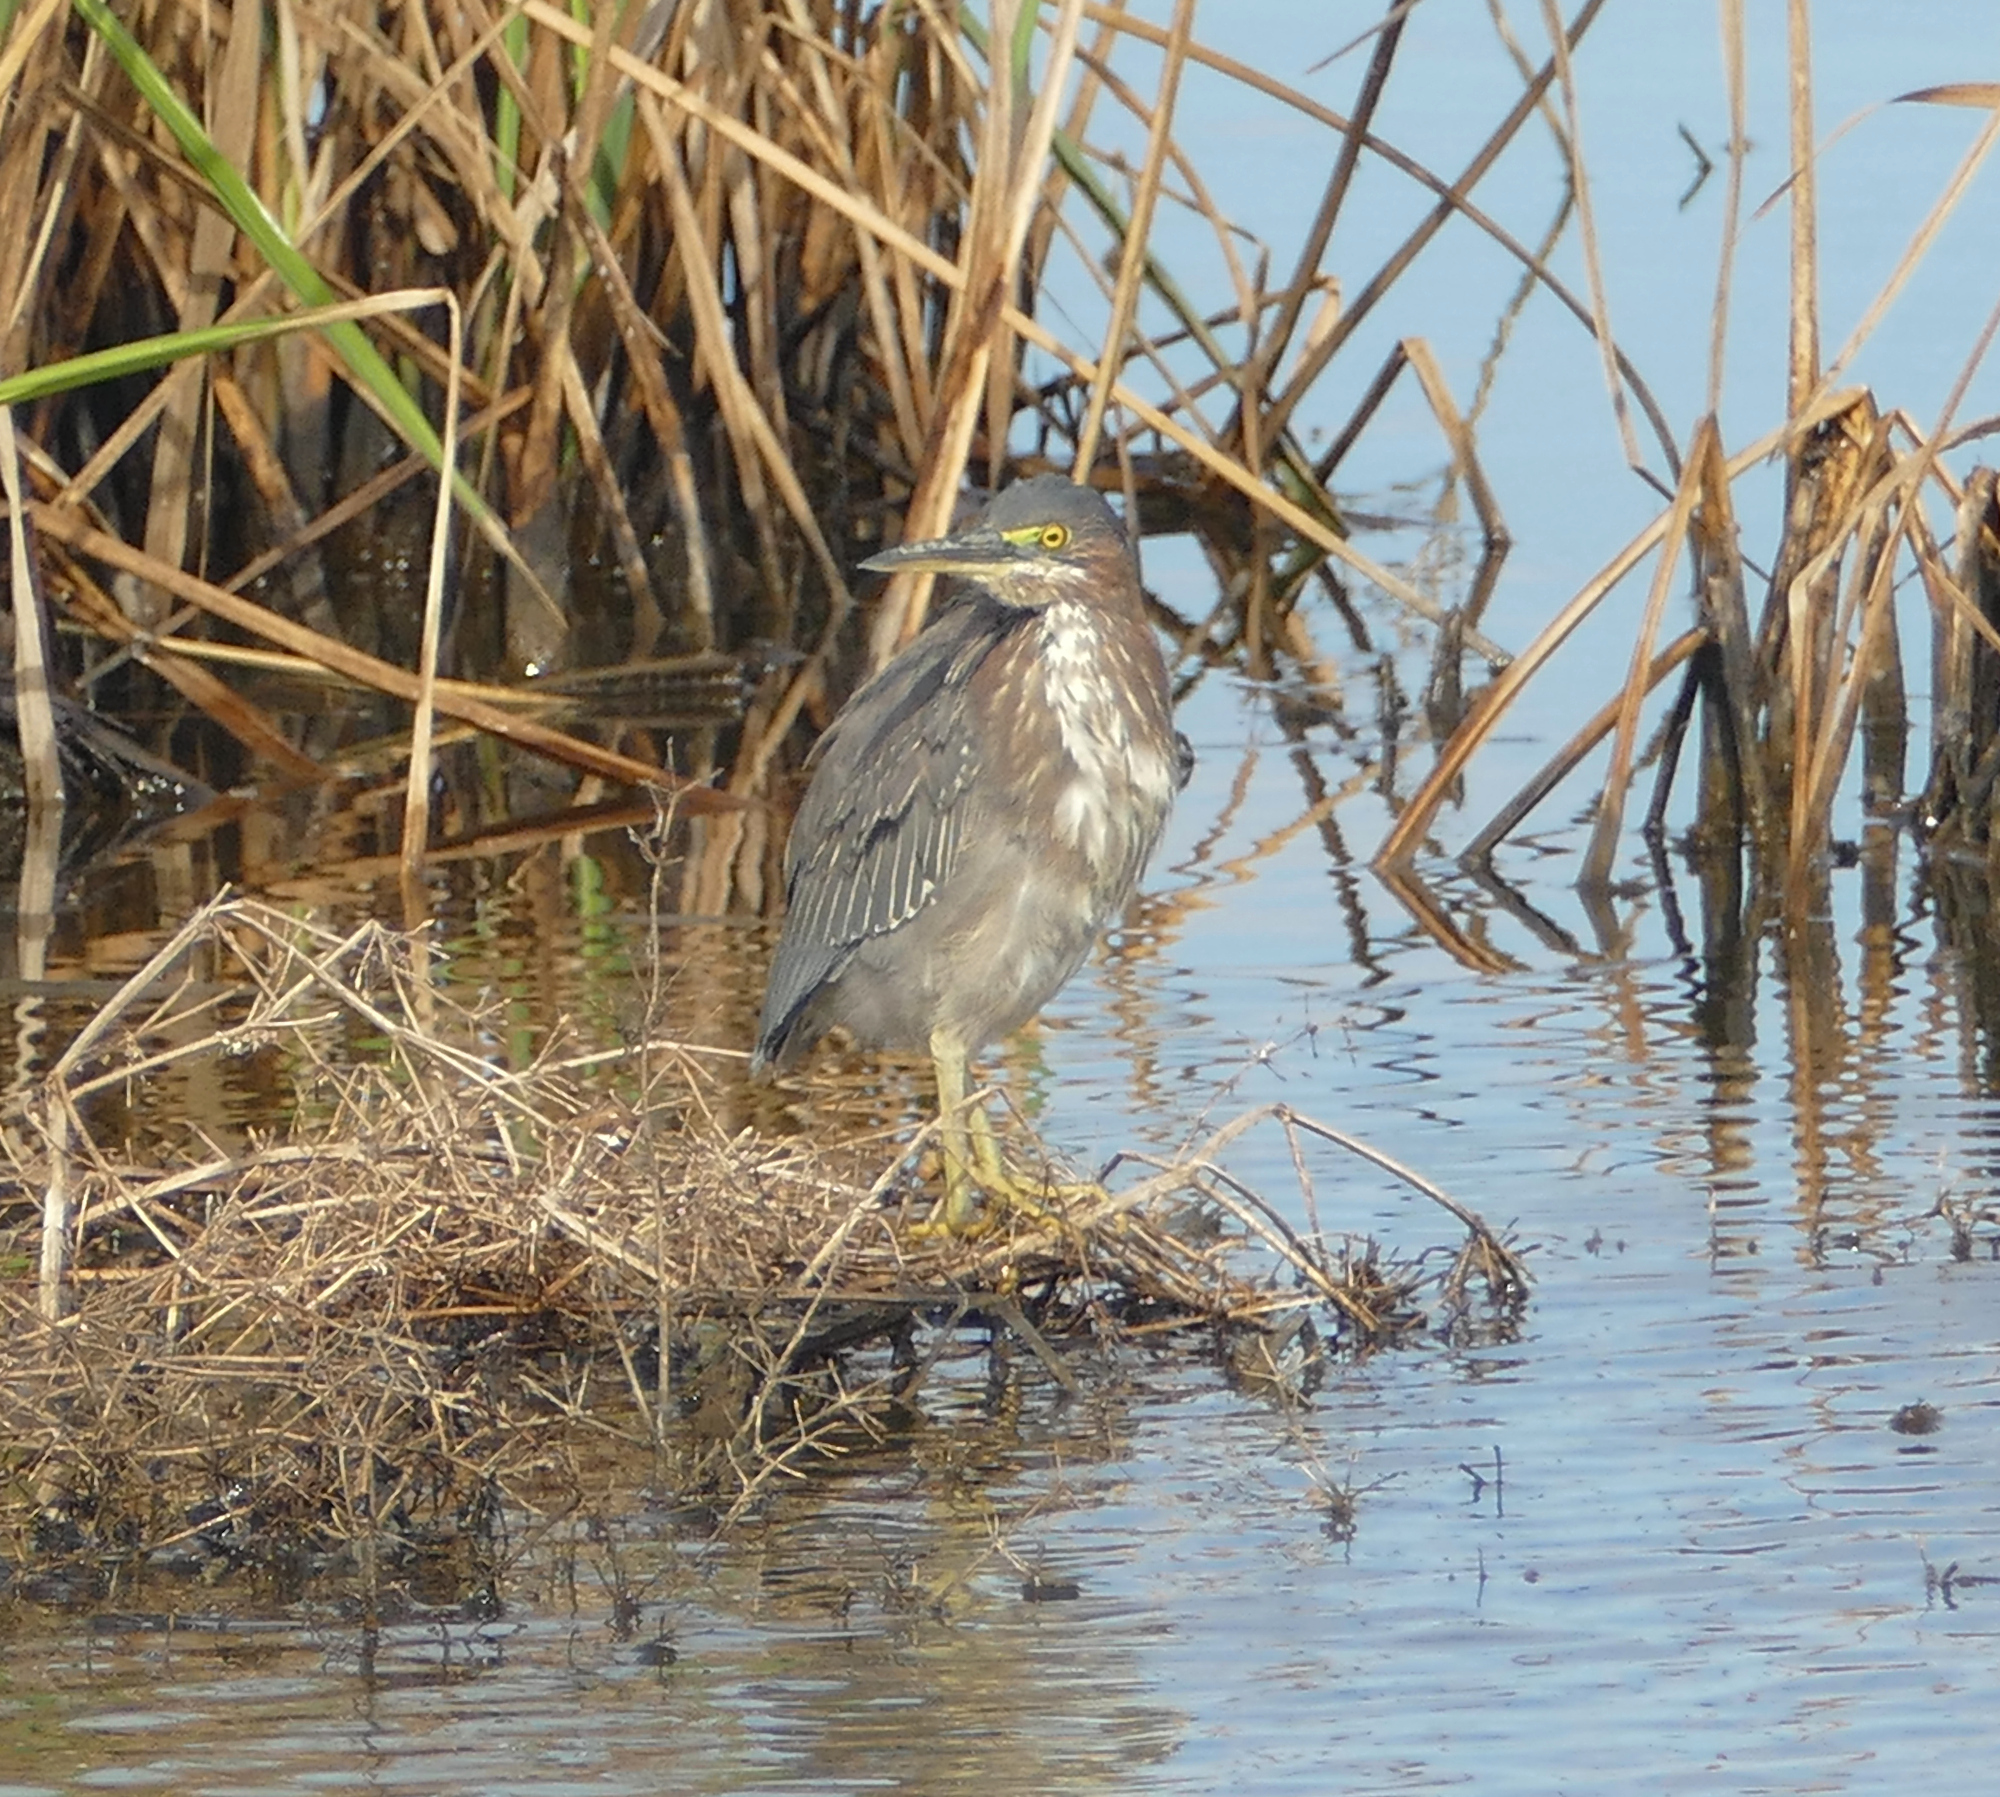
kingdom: Animalia
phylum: Chordata
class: Aves
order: Pelecaniformes
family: Ardeidae
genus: Butorides
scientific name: Butorides virescens
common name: Green heron
